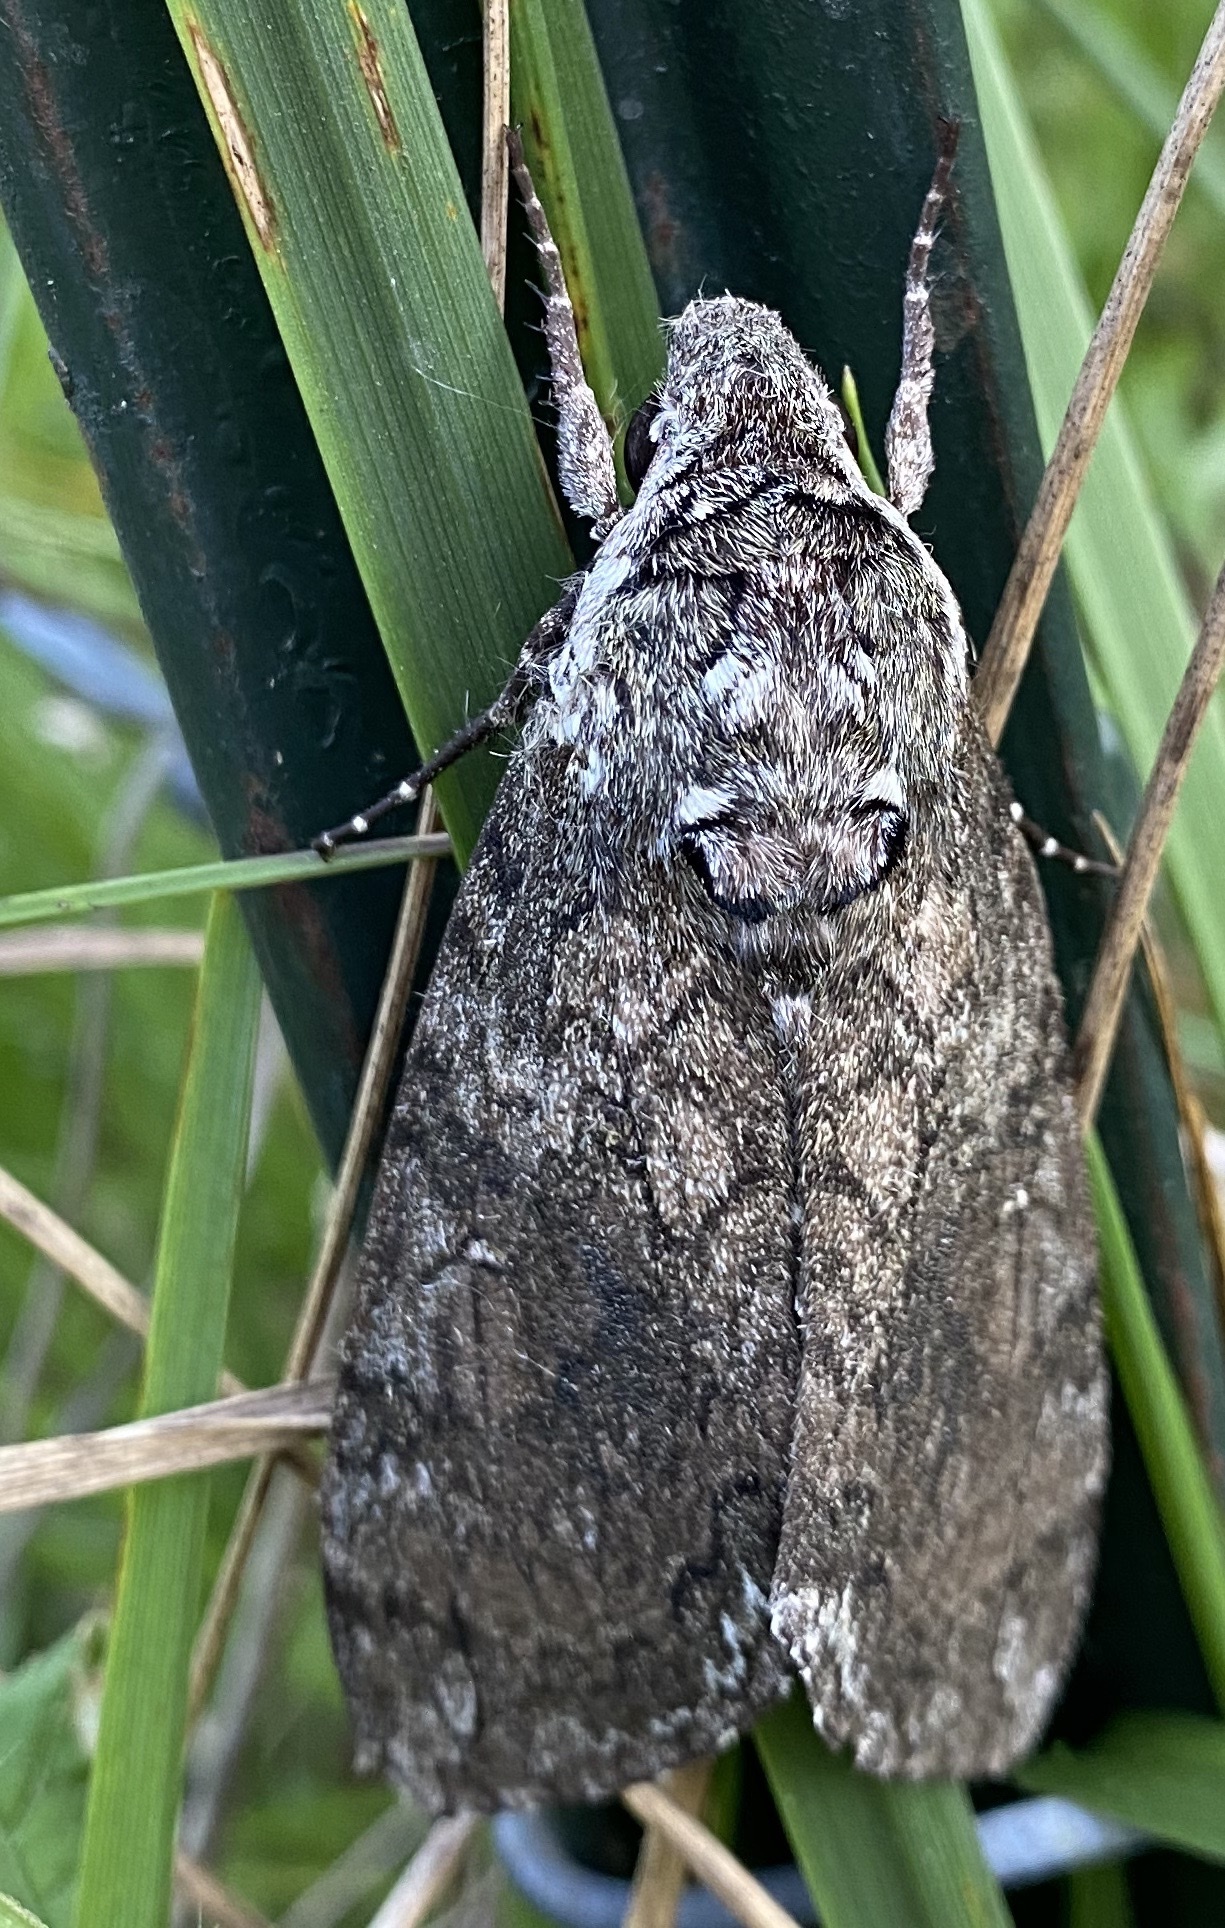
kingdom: Animalia
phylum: Arthropoda
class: Insecta
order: Lepidoptera
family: Sphingidae
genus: Manduca
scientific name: Manduca sexta
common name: Carolina sphinx
